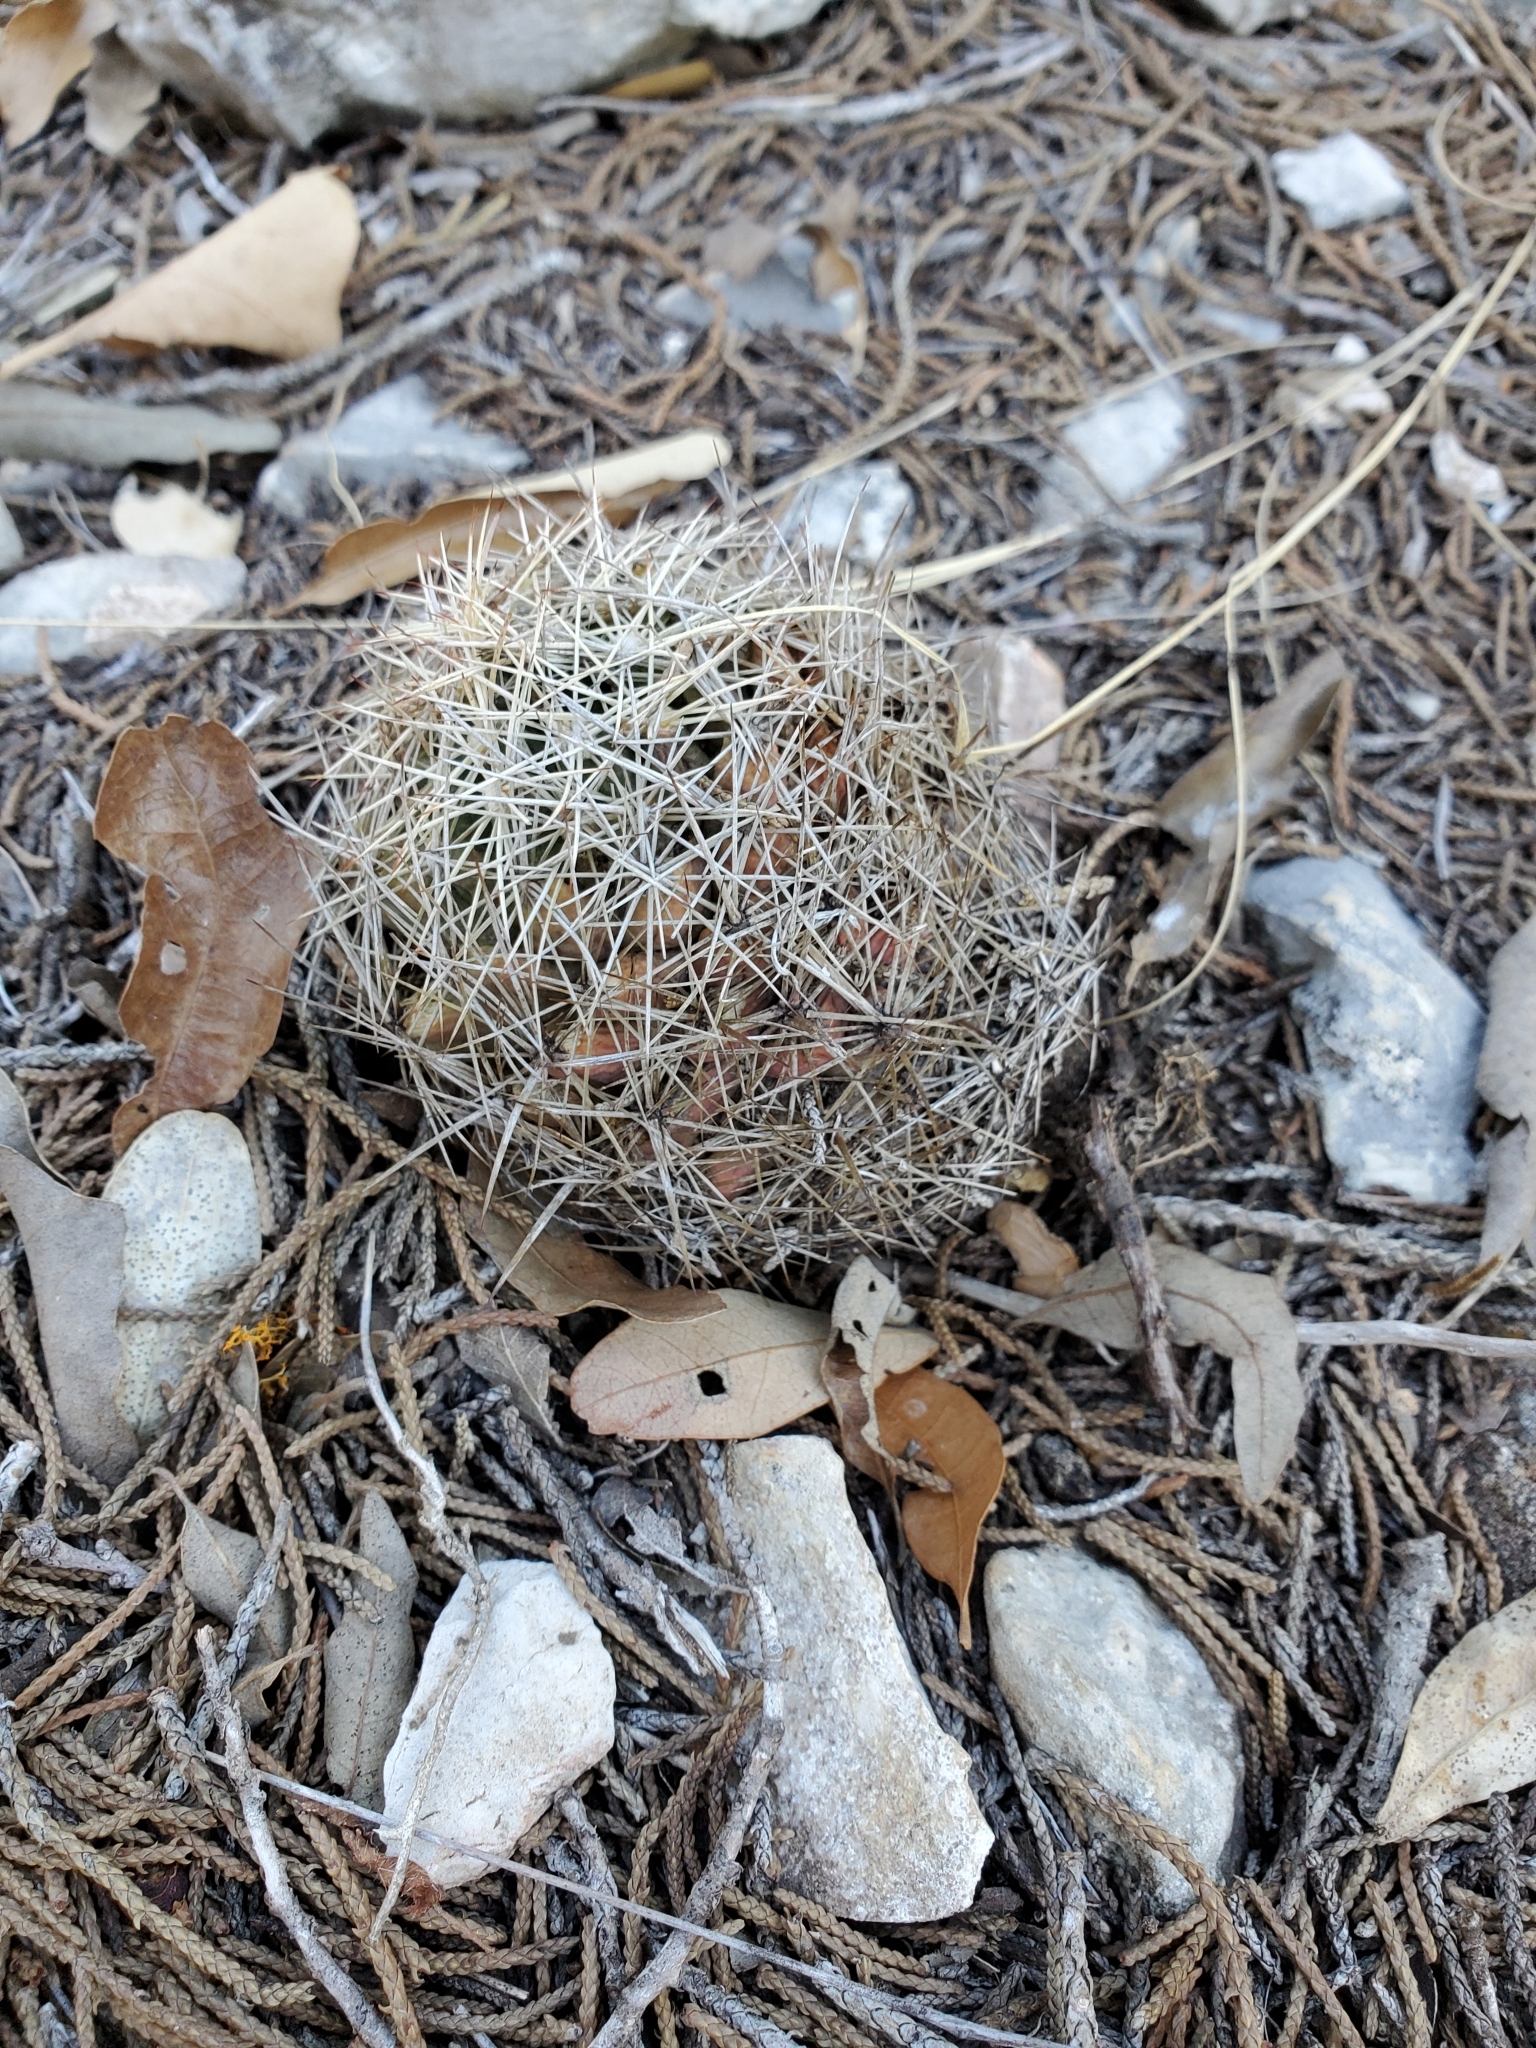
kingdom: Plantae
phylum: Tracheophyta
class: Magnoliopsida
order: Caryophyllales
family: Cactaceae
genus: Coryphantha
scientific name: Coryphantha sulcata
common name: Finger cactus
